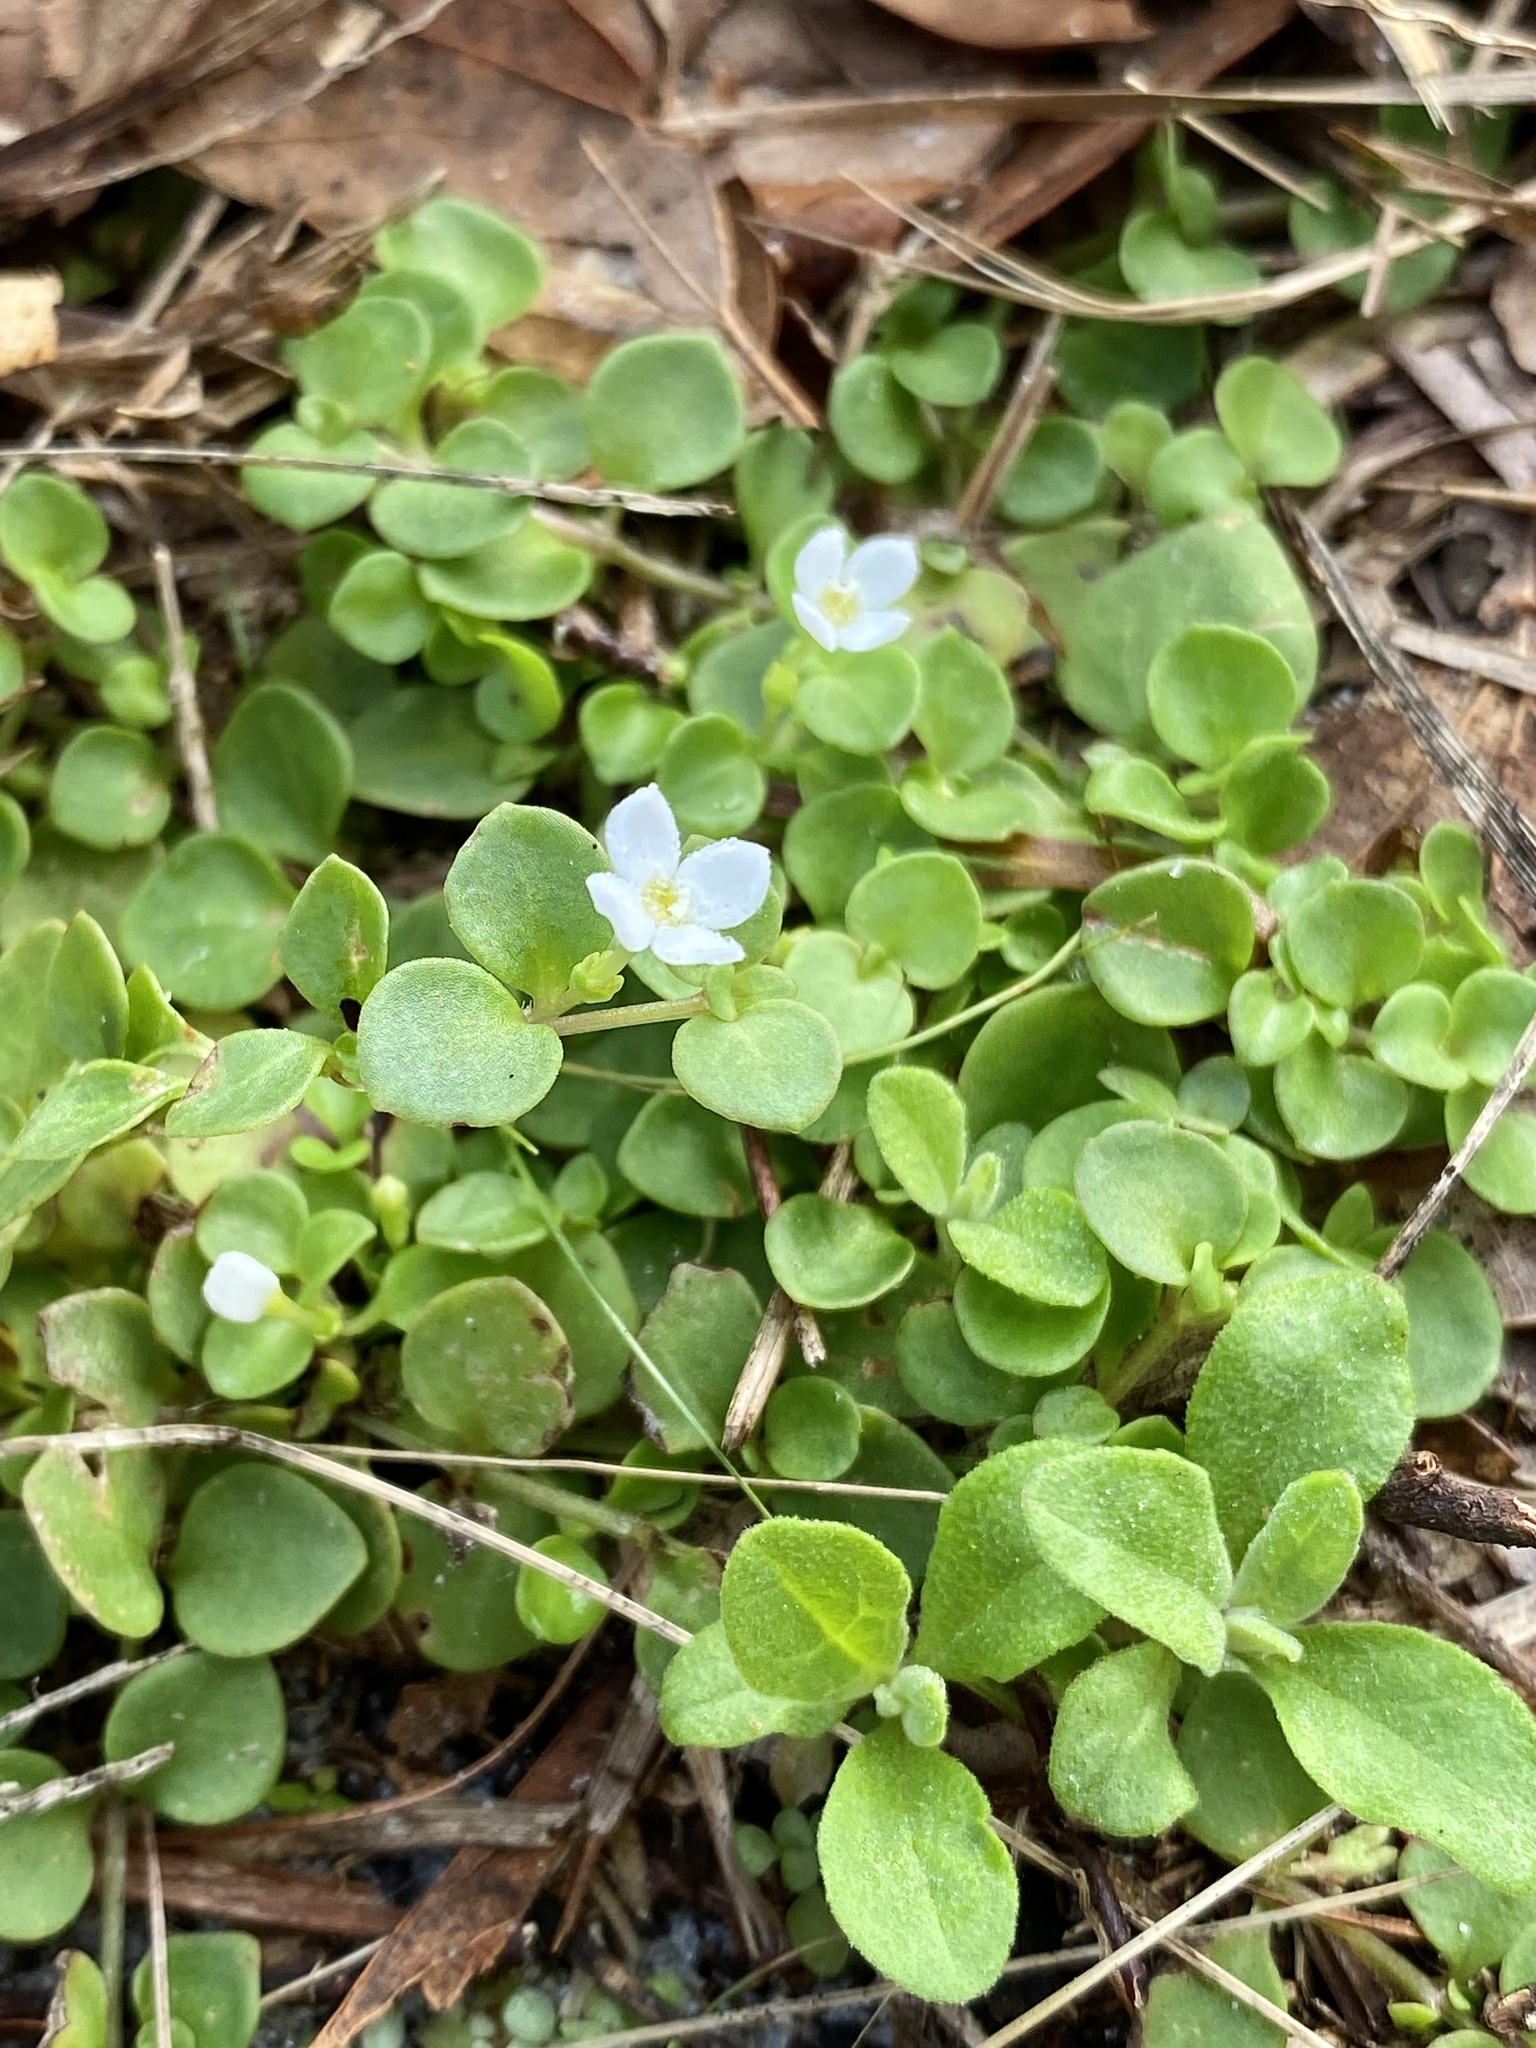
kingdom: Plantae
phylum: Tracheophyta
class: Magnoliopsida
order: Gentianales
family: Rubiaceae
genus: Houstonia
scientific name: Houstonia procumbens
